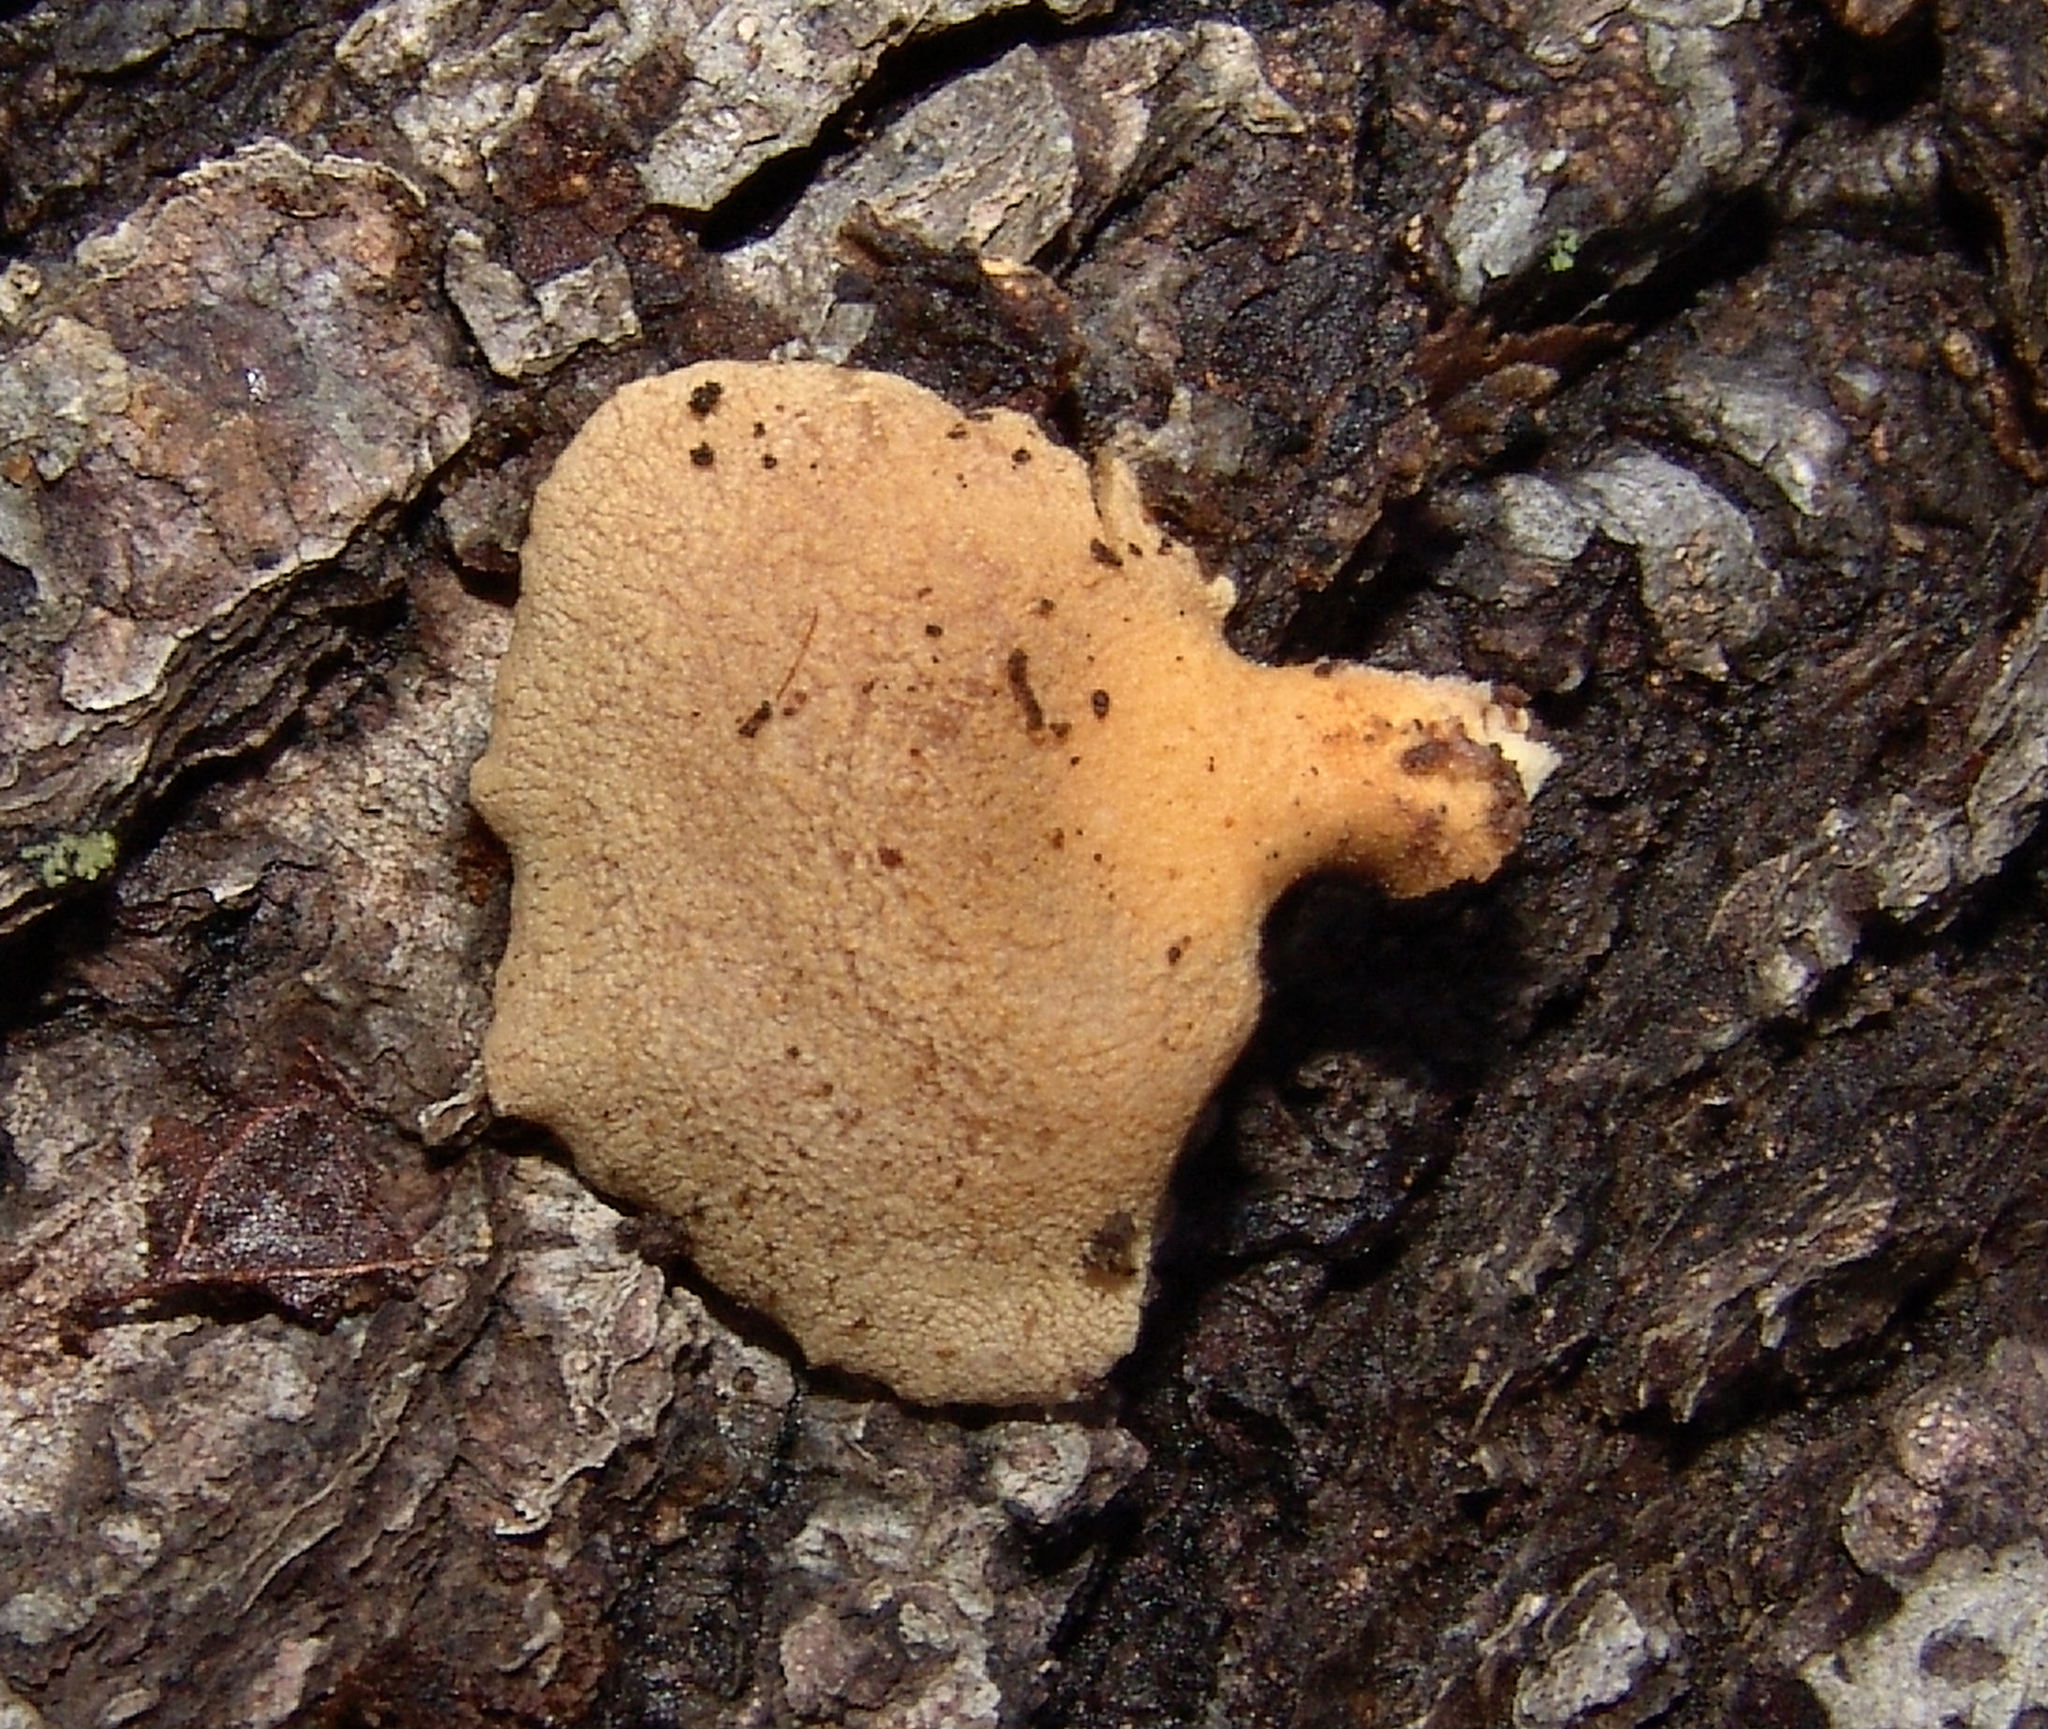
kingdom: Fungi
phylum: Basidiomycota
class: Agaricomycetes
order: Agaricales
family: Mycenaceae
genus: Panellus
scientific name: Panellus stipticus
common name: Bitter oysterling
